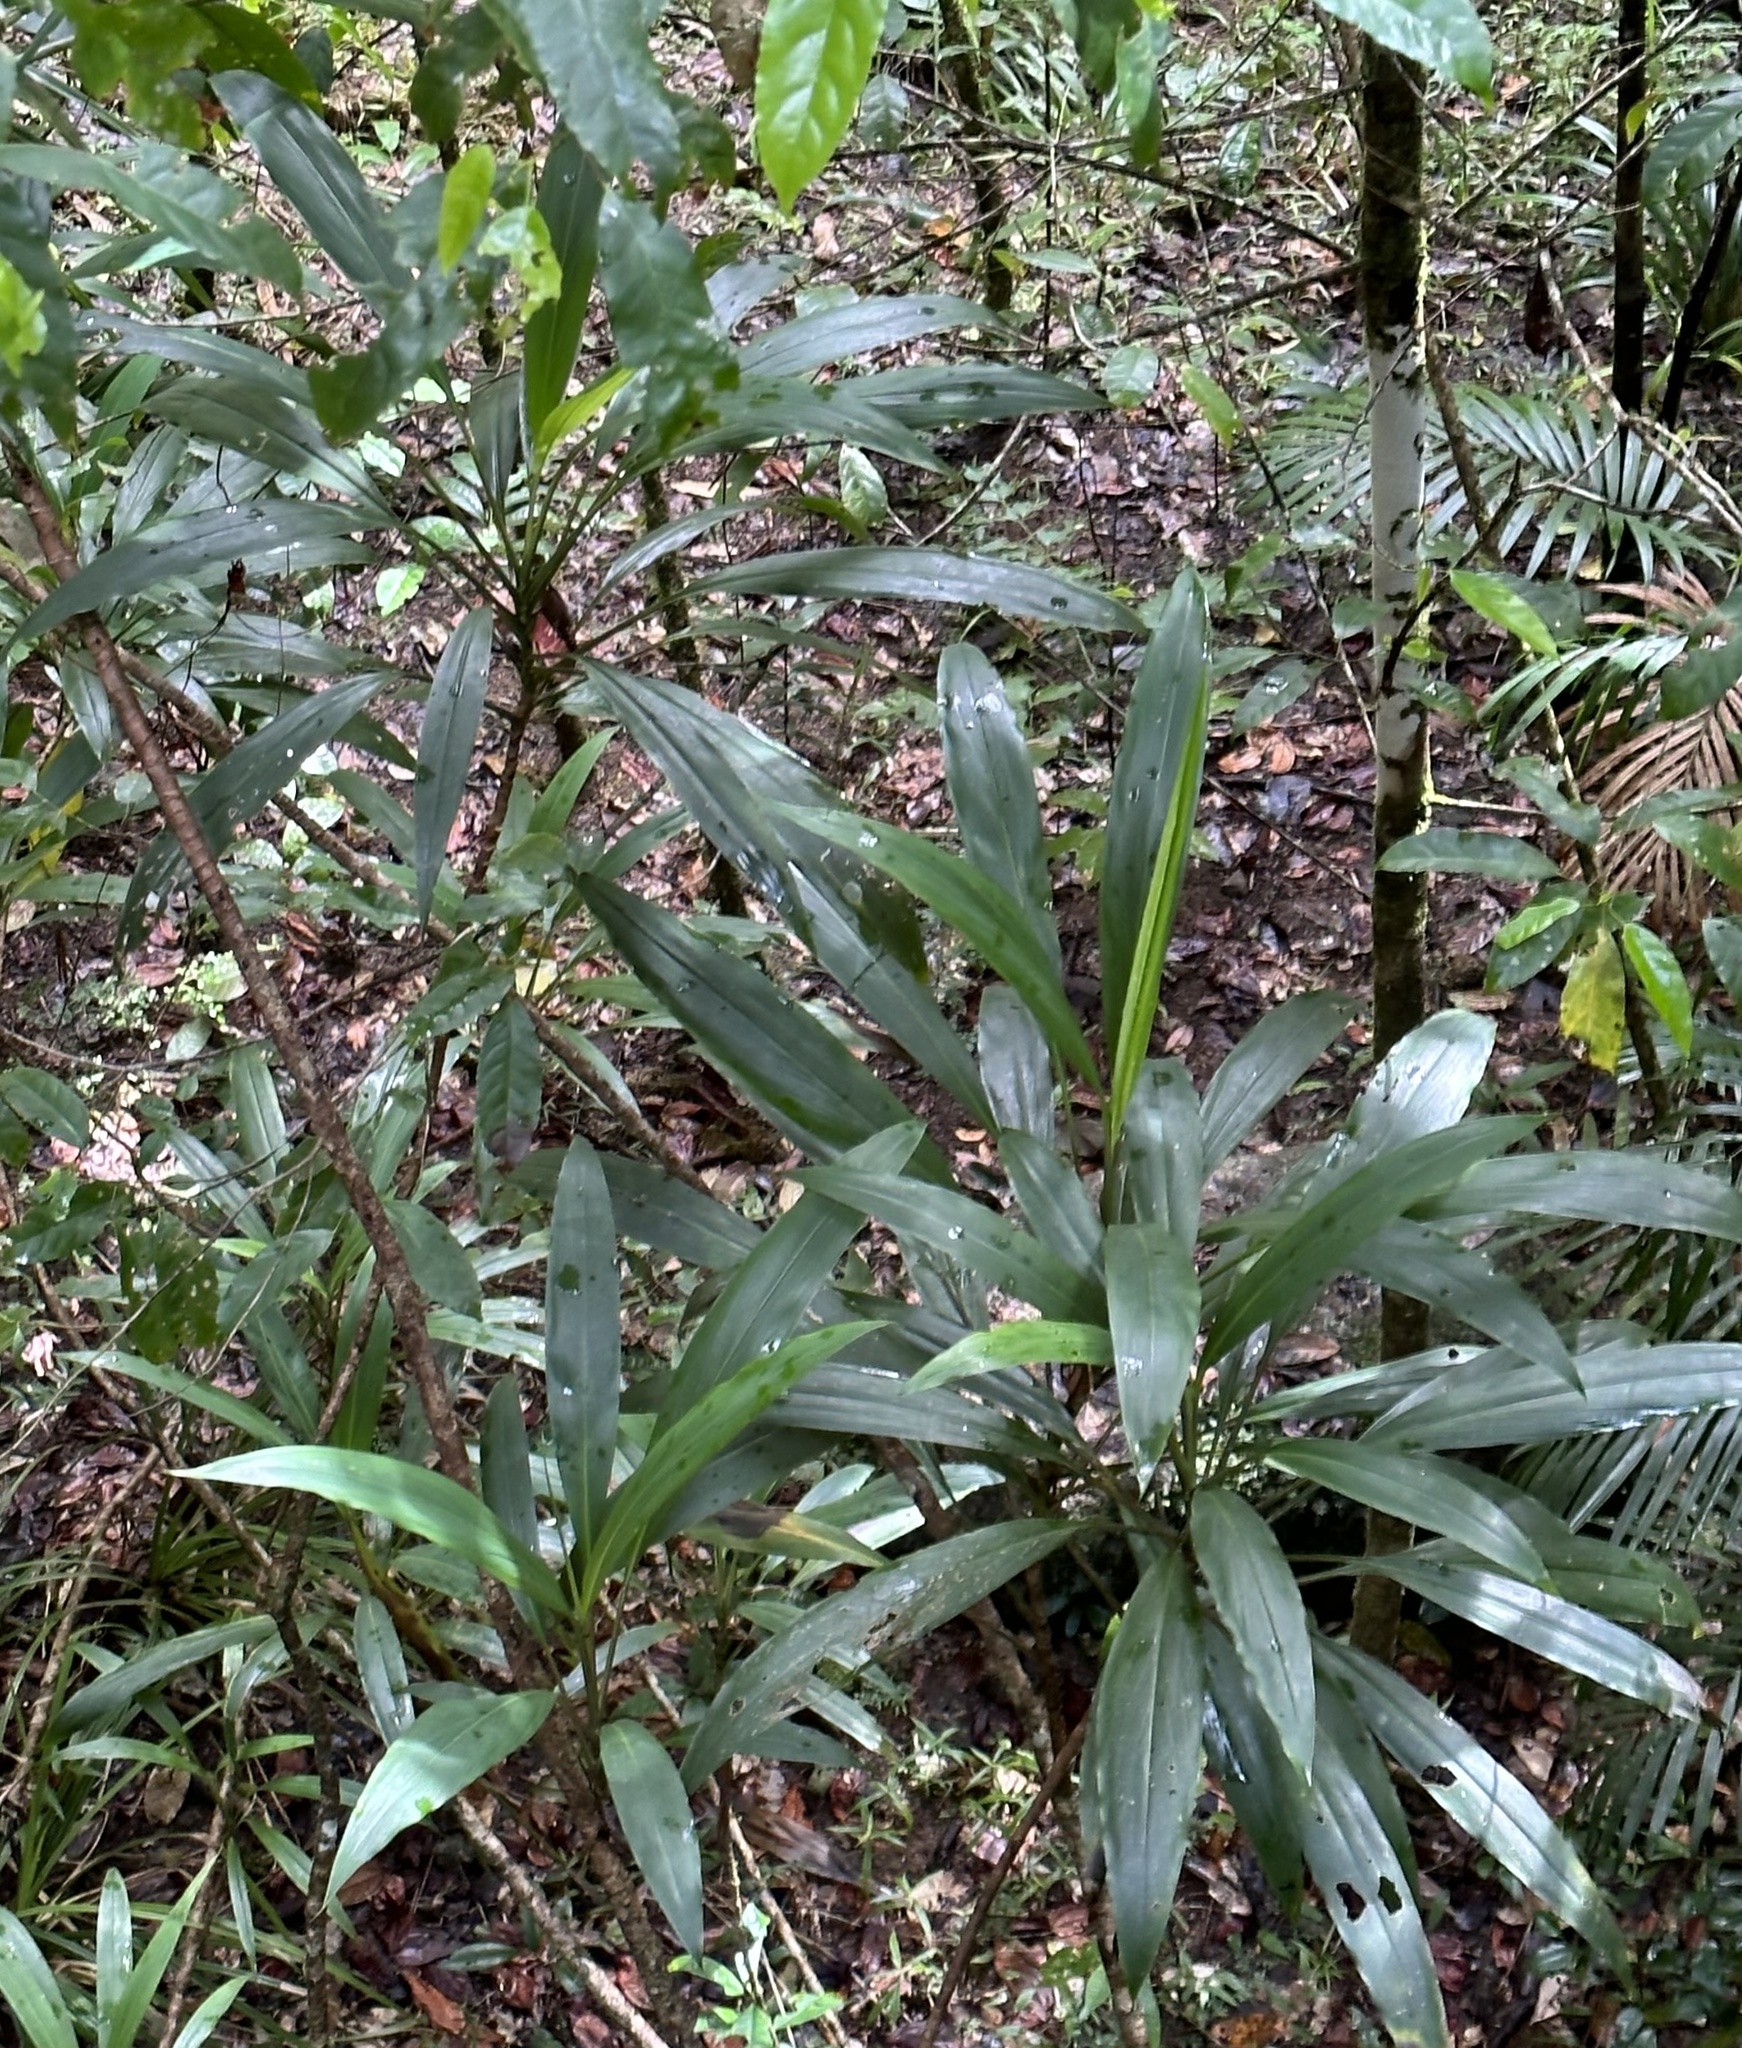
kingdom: Plantae
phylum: Tracheophyta
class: Liliopsida
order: Asparagales
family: Asparagaceae
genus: Cordyline
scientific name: Cordyline cannifolia
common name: Palm-lily
